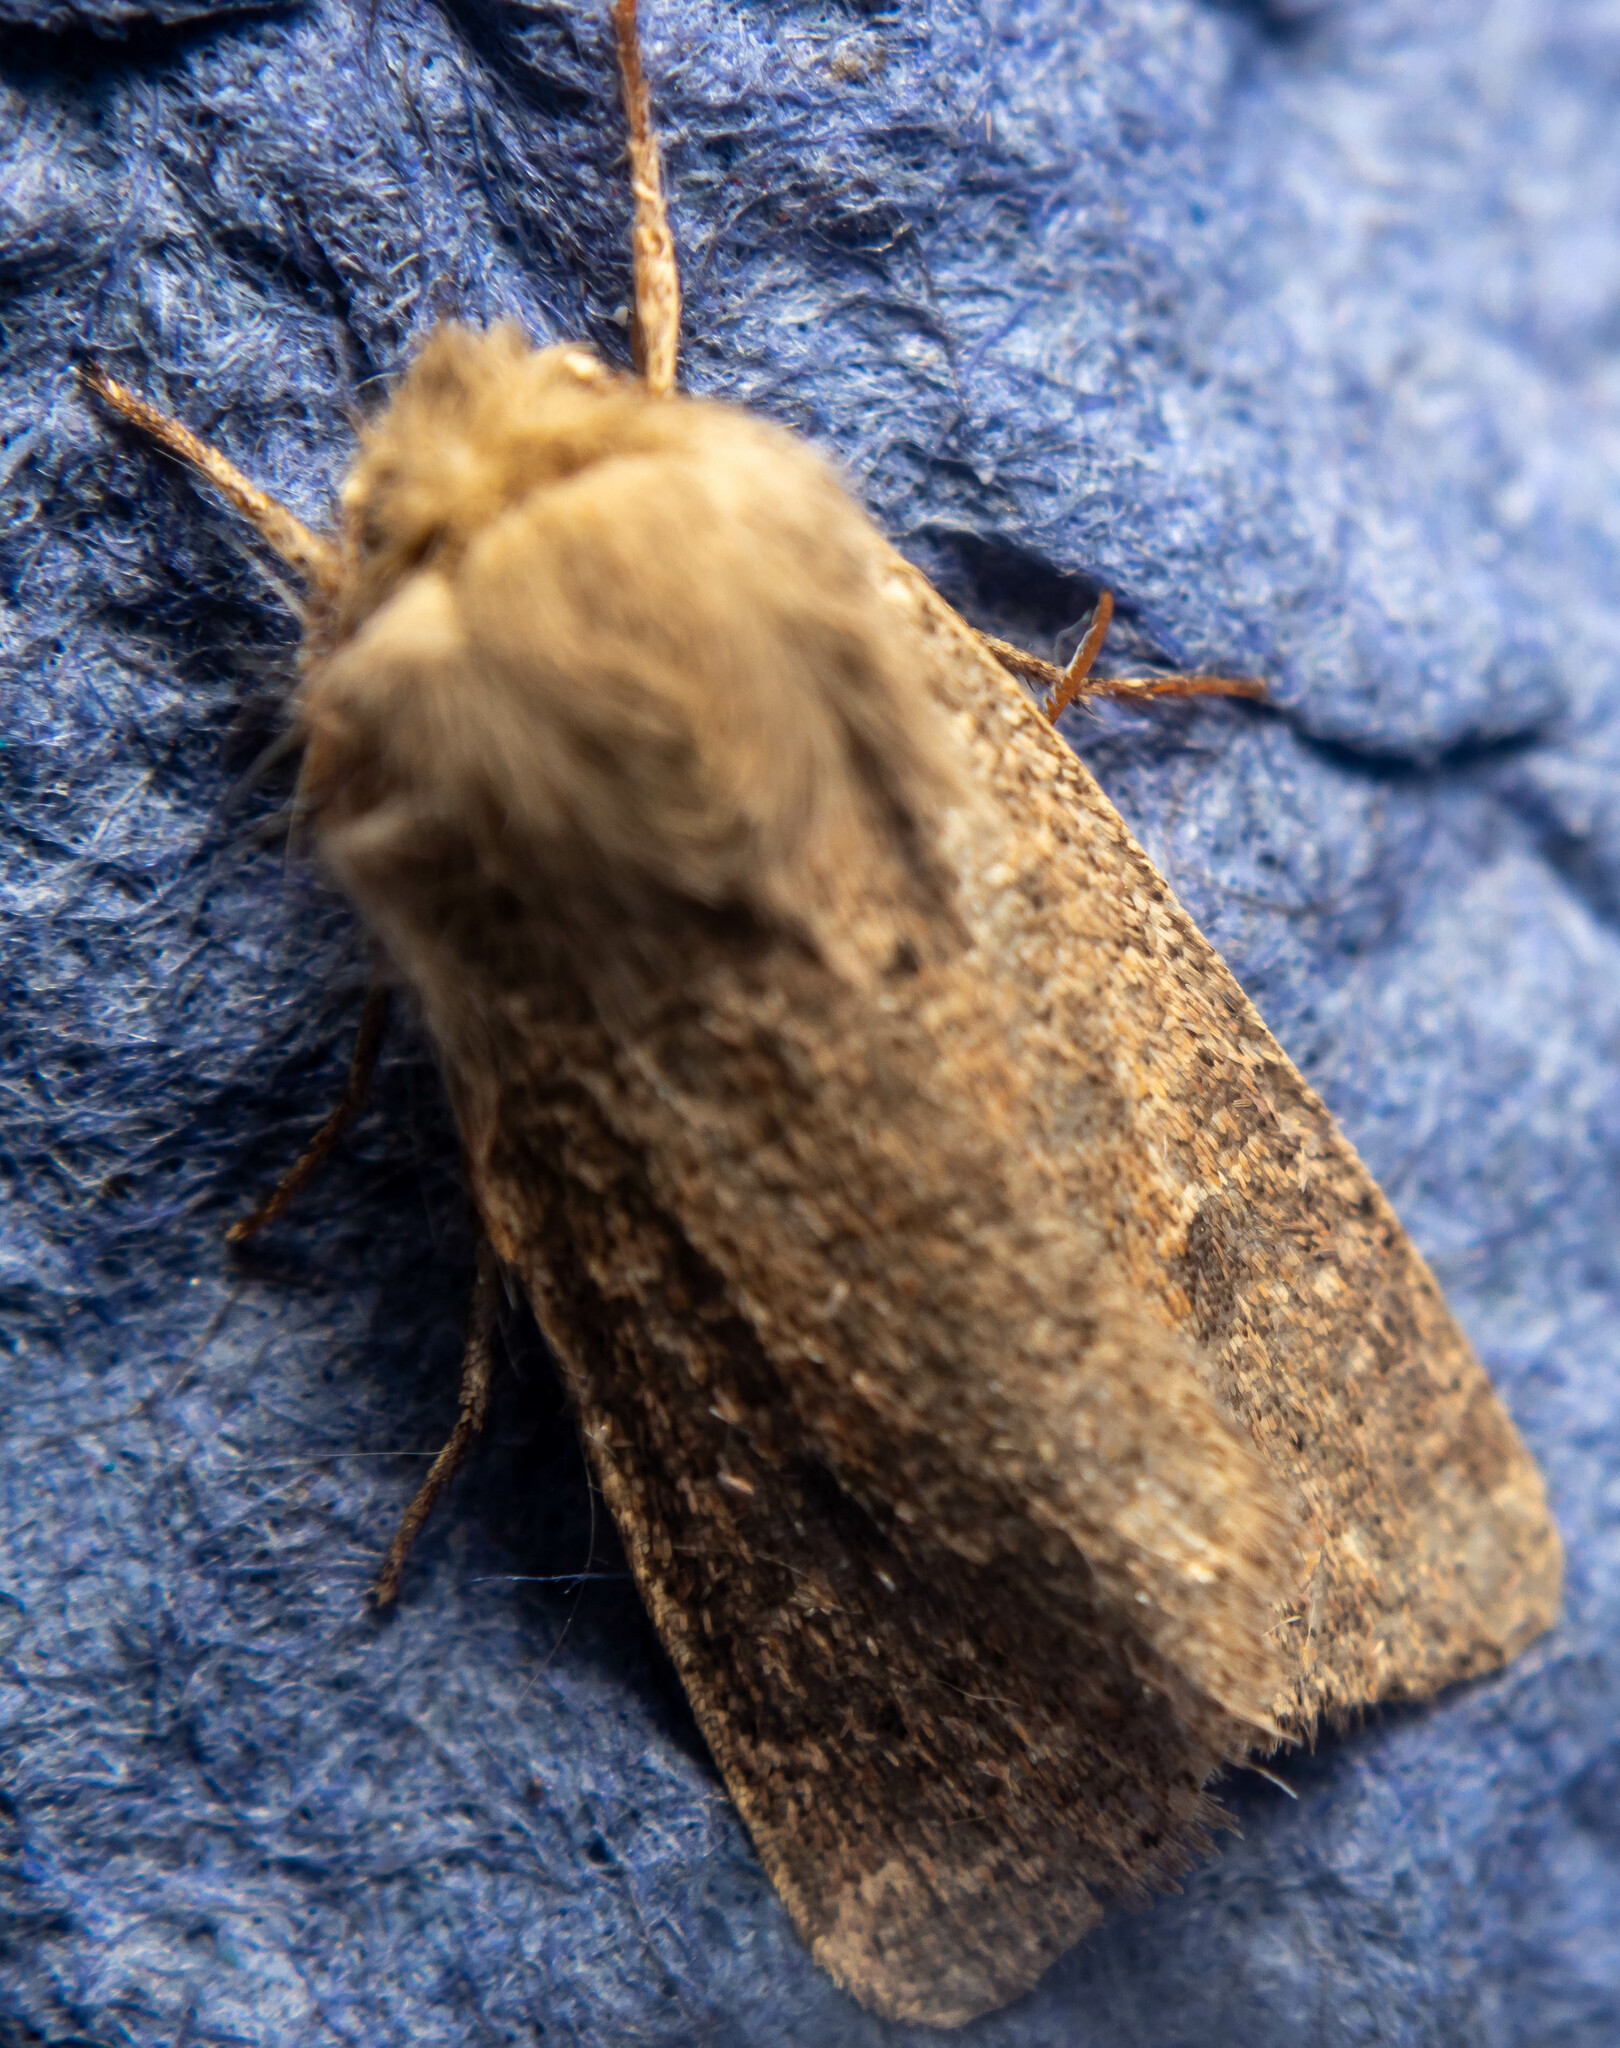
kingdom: Animalia
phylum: Arthropoda
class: Insecta
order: Lepidoptera
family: Noctuidae
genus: Orthosia
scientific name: Orthosia cruda
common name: Small quaker
